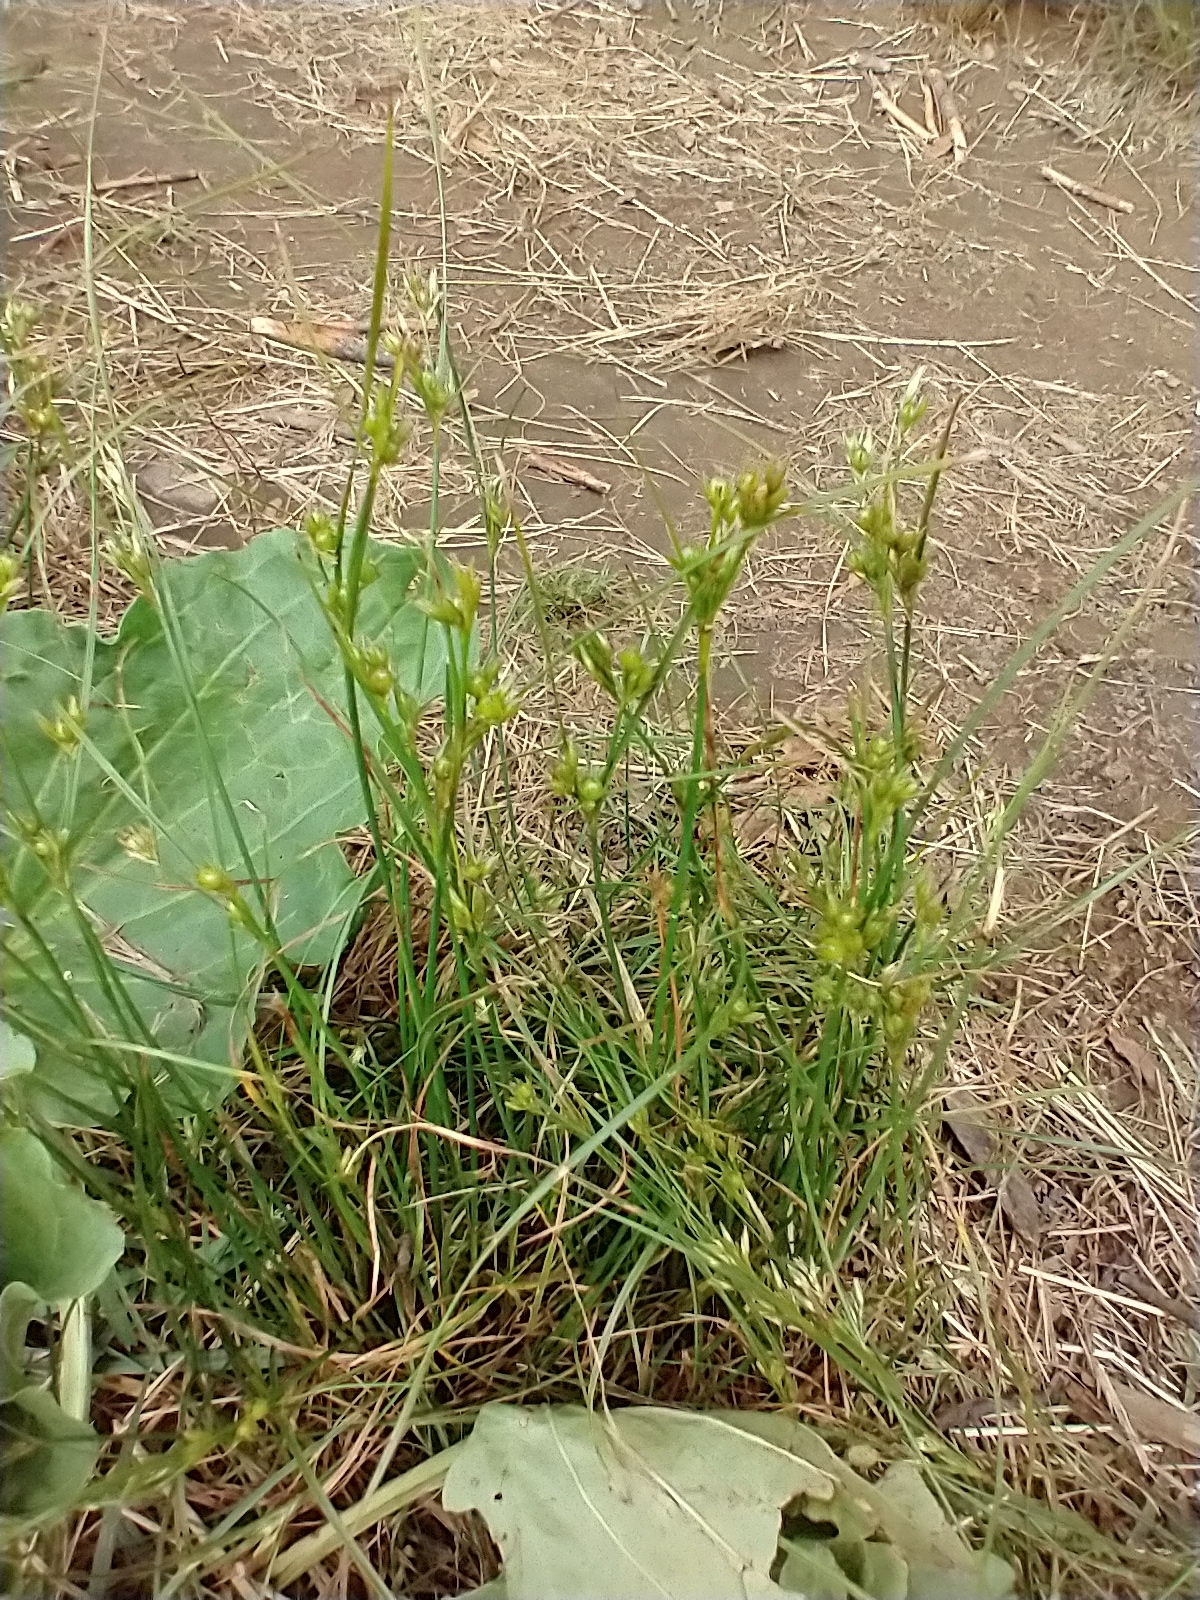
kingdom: Plantae
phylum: Tracheophyta
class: Liliopsida
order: Poales
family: Juncaceae
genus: Juncus
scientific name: Juncus tenuis
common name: Slender rush
